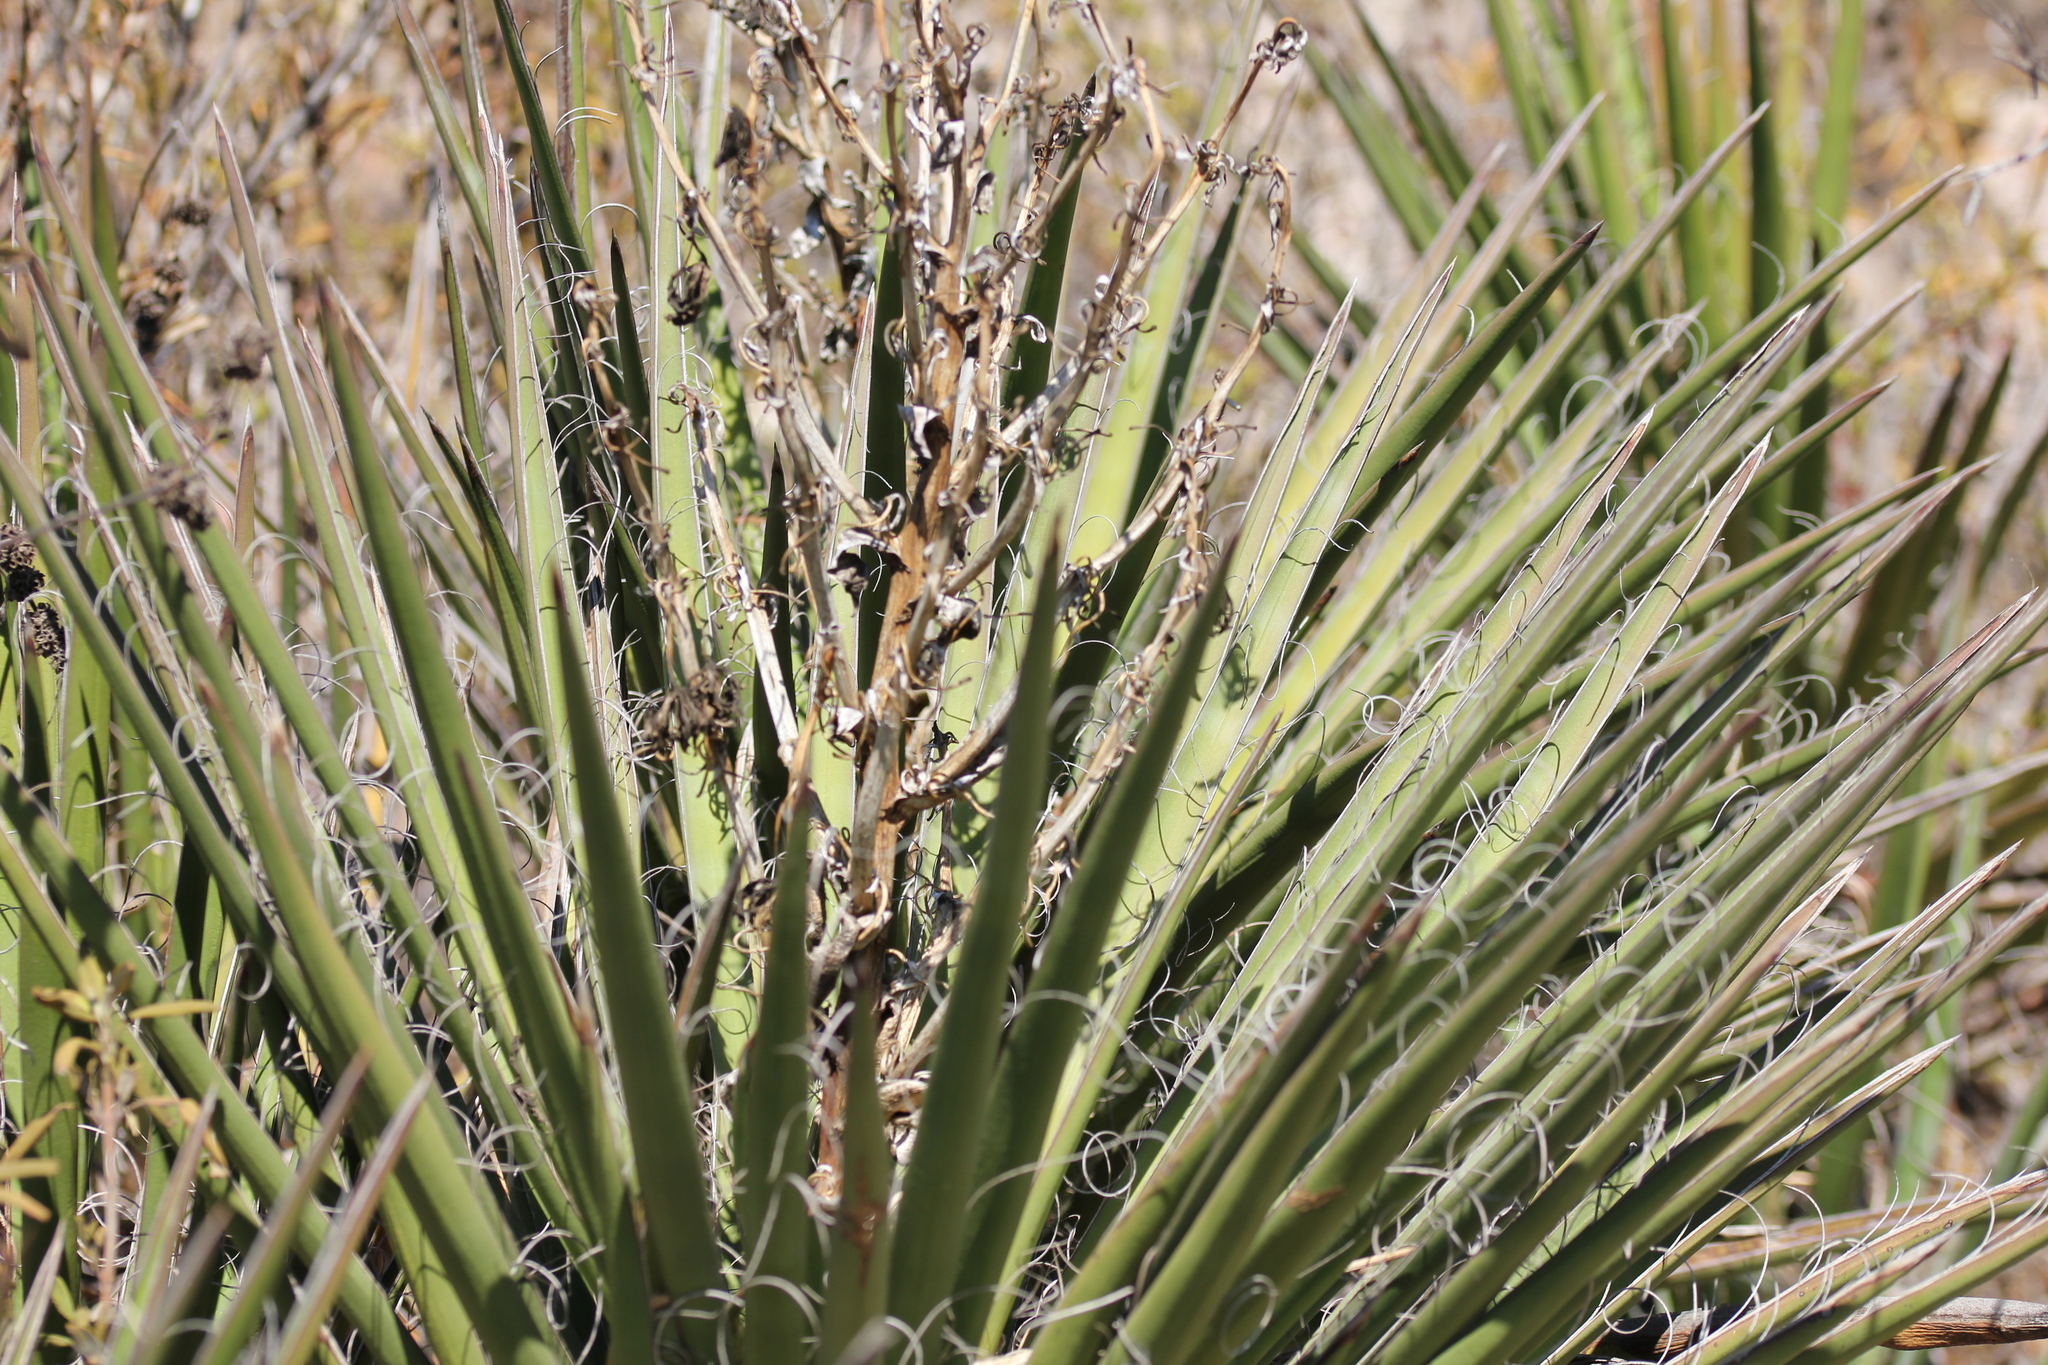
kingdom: Plantae
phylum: Tracheophyta
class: Liliopsida
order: Asparagales
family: Asparagaceae
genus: Yucca
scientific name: Yucca schidigera
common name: Mojave yucca
